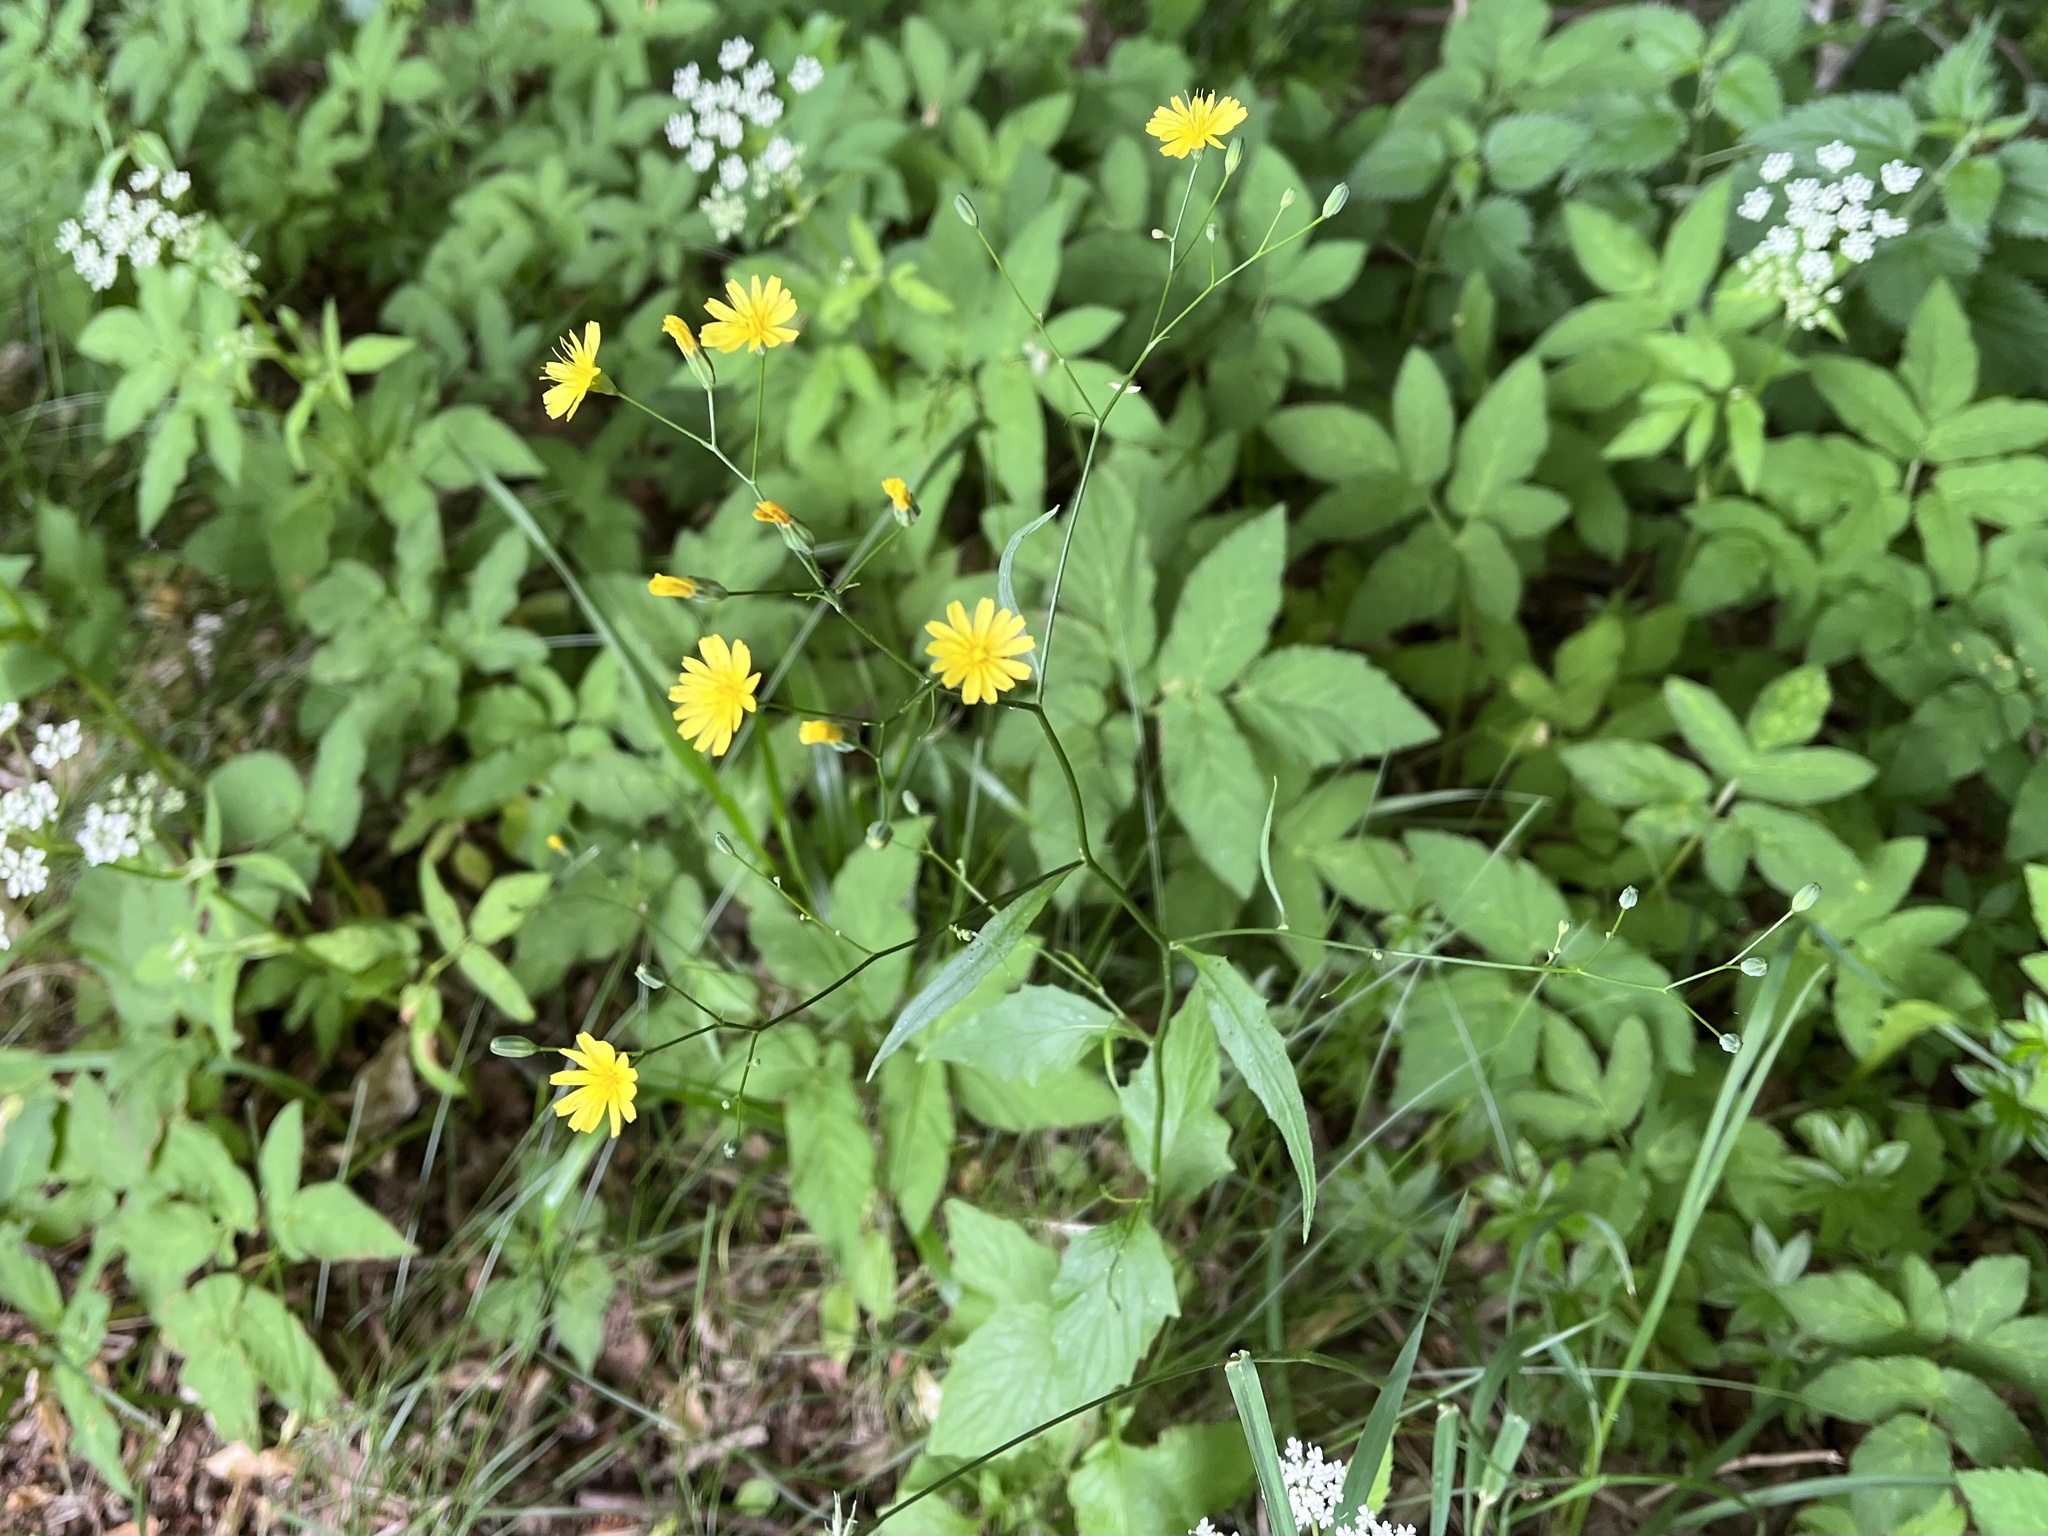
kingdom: Plantae
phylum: Tracheophyta
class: Magnoliopsida
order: Asterales
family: Asteraceae
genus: Lapsana
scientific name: Lapsana communis
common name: Nipplewort
